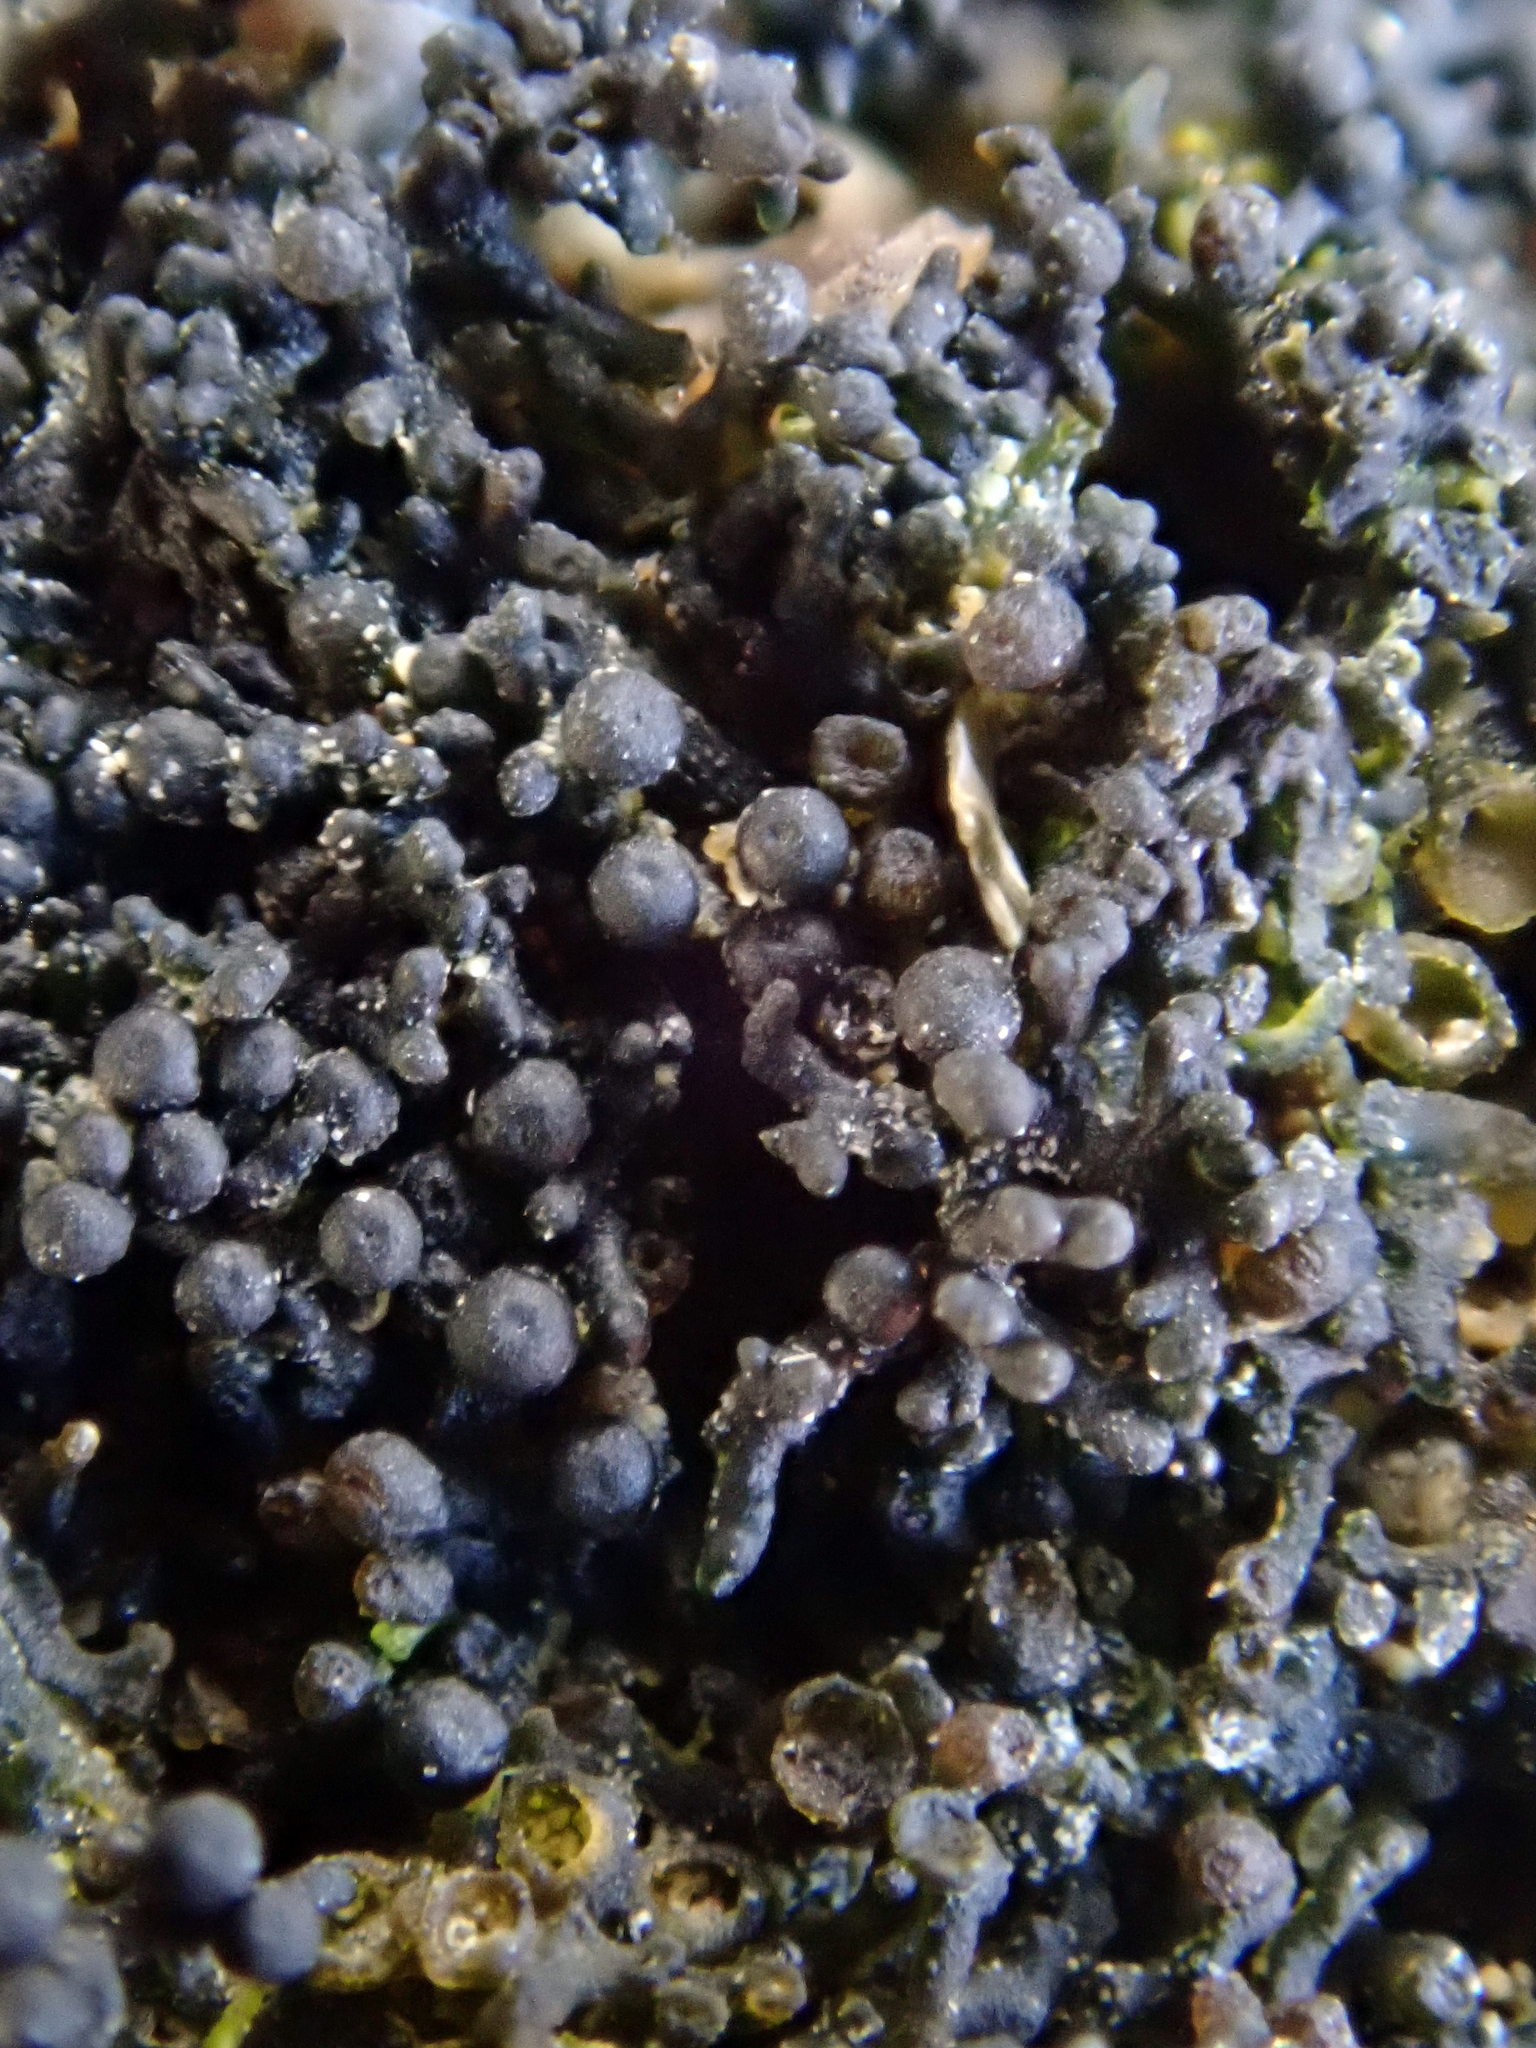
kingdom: Fungi
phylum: Ascomycota
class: Lichinomycetes
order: Lichinales
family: Lichinaceae
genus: Lichina
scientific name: Lichina intermedia
